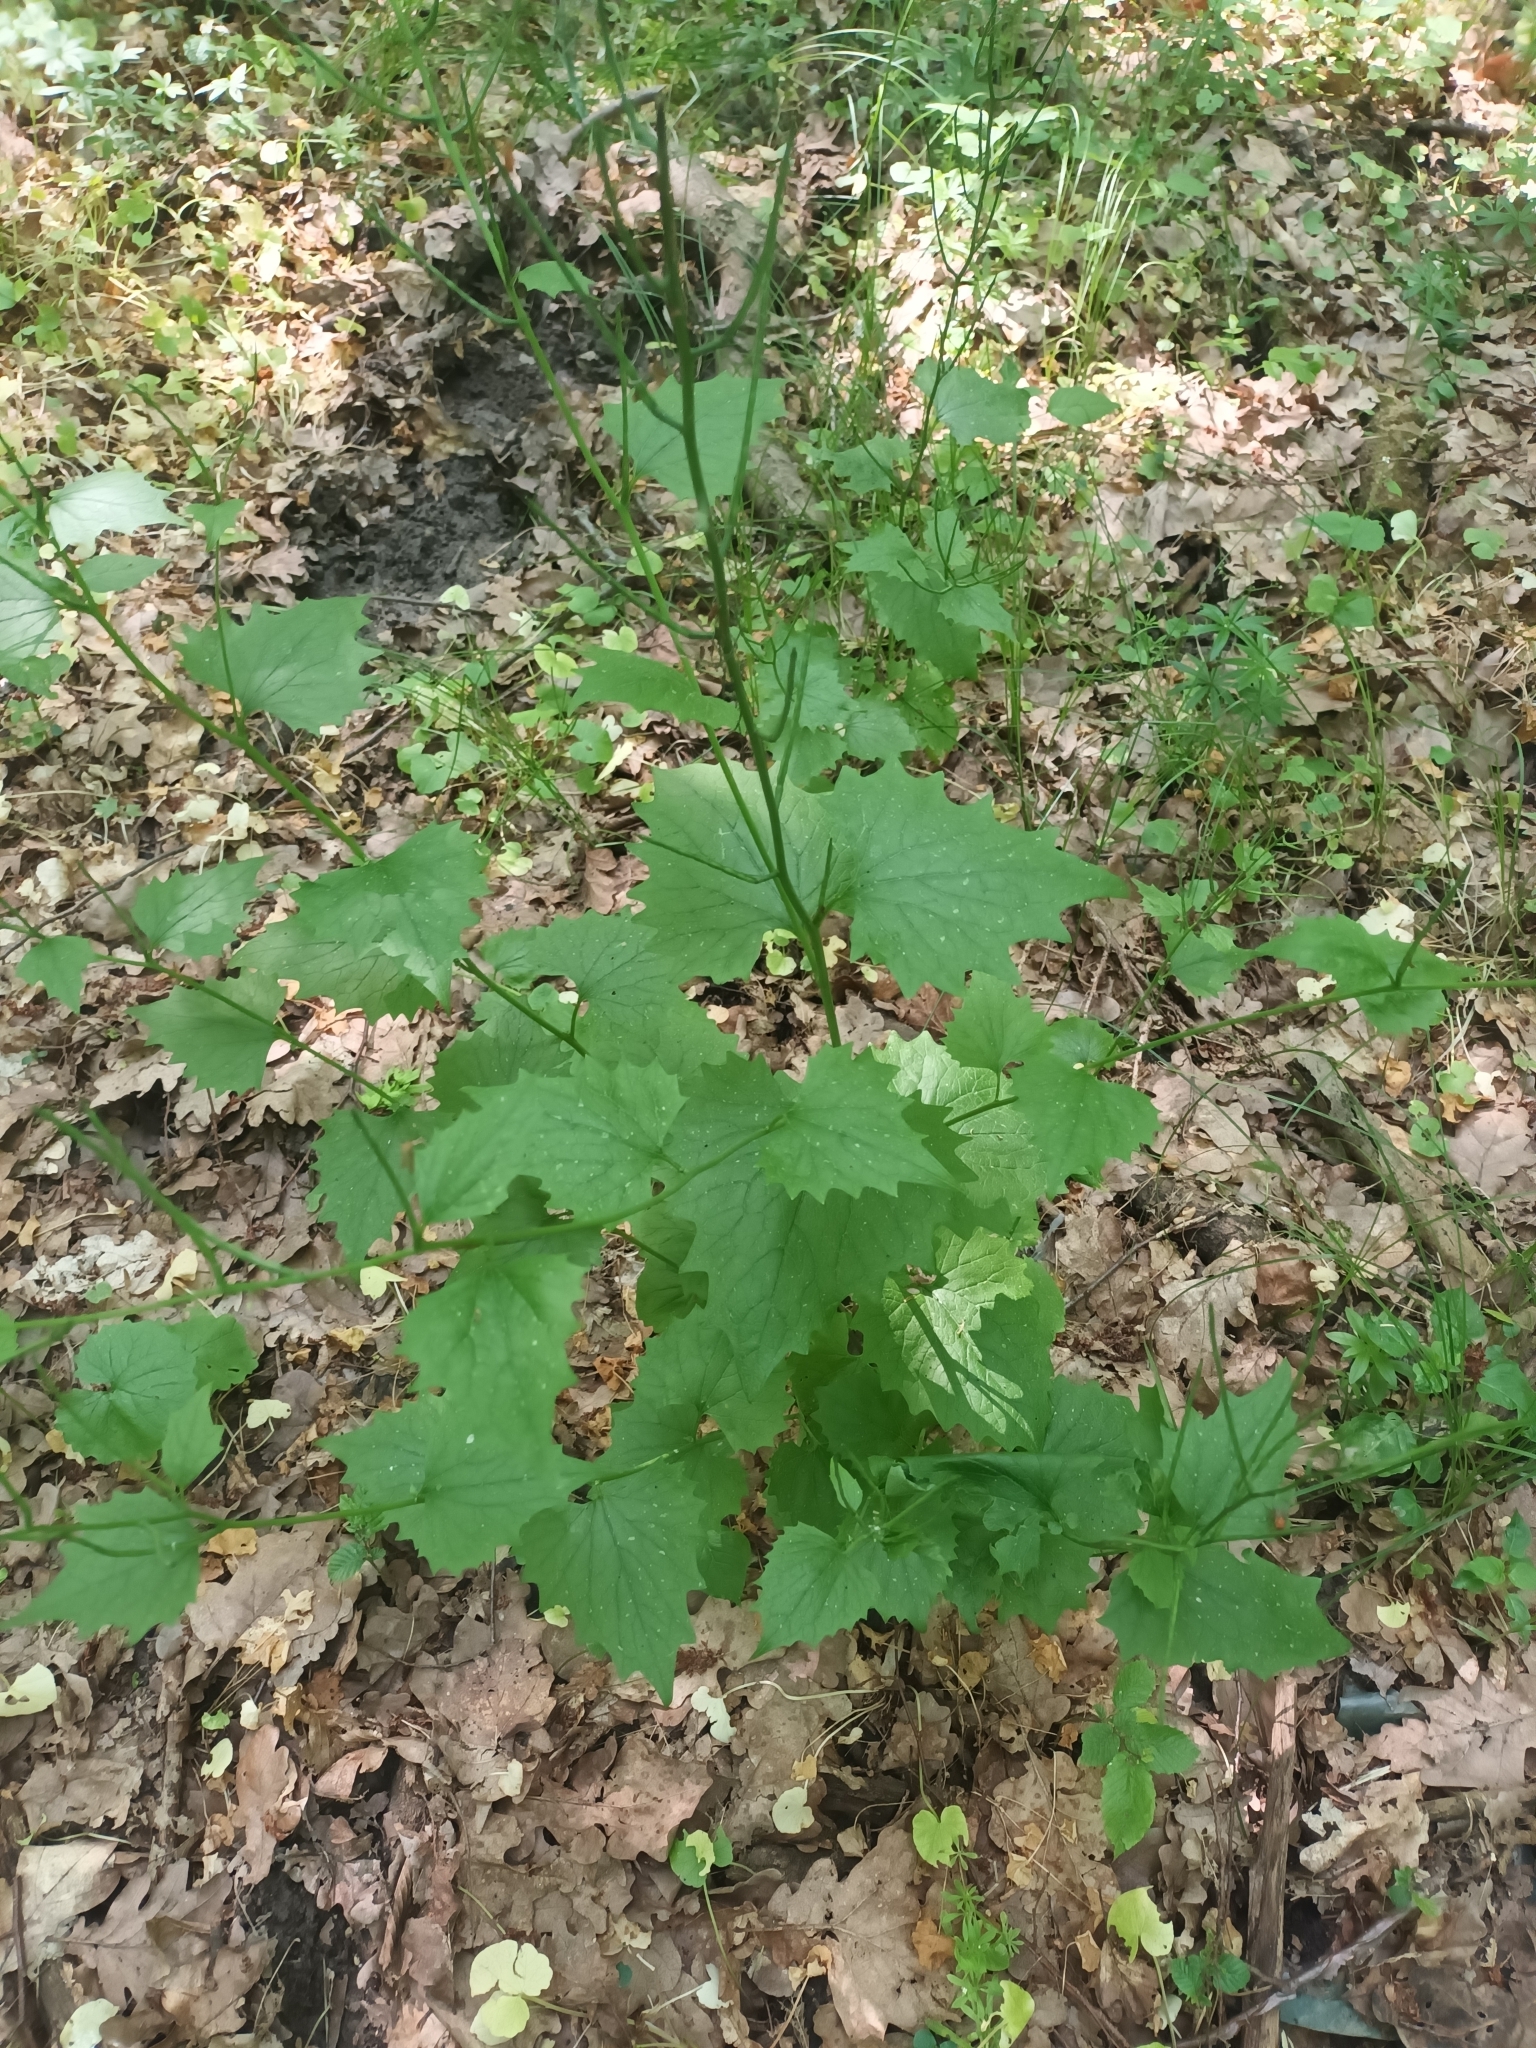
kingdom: Plantae
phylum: Tracheophyta
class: Magnoliopsida
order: Brassicales
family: Brassicaceae
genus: Alliaria
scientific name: Alliaria petiolata
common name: Garlic mustard
